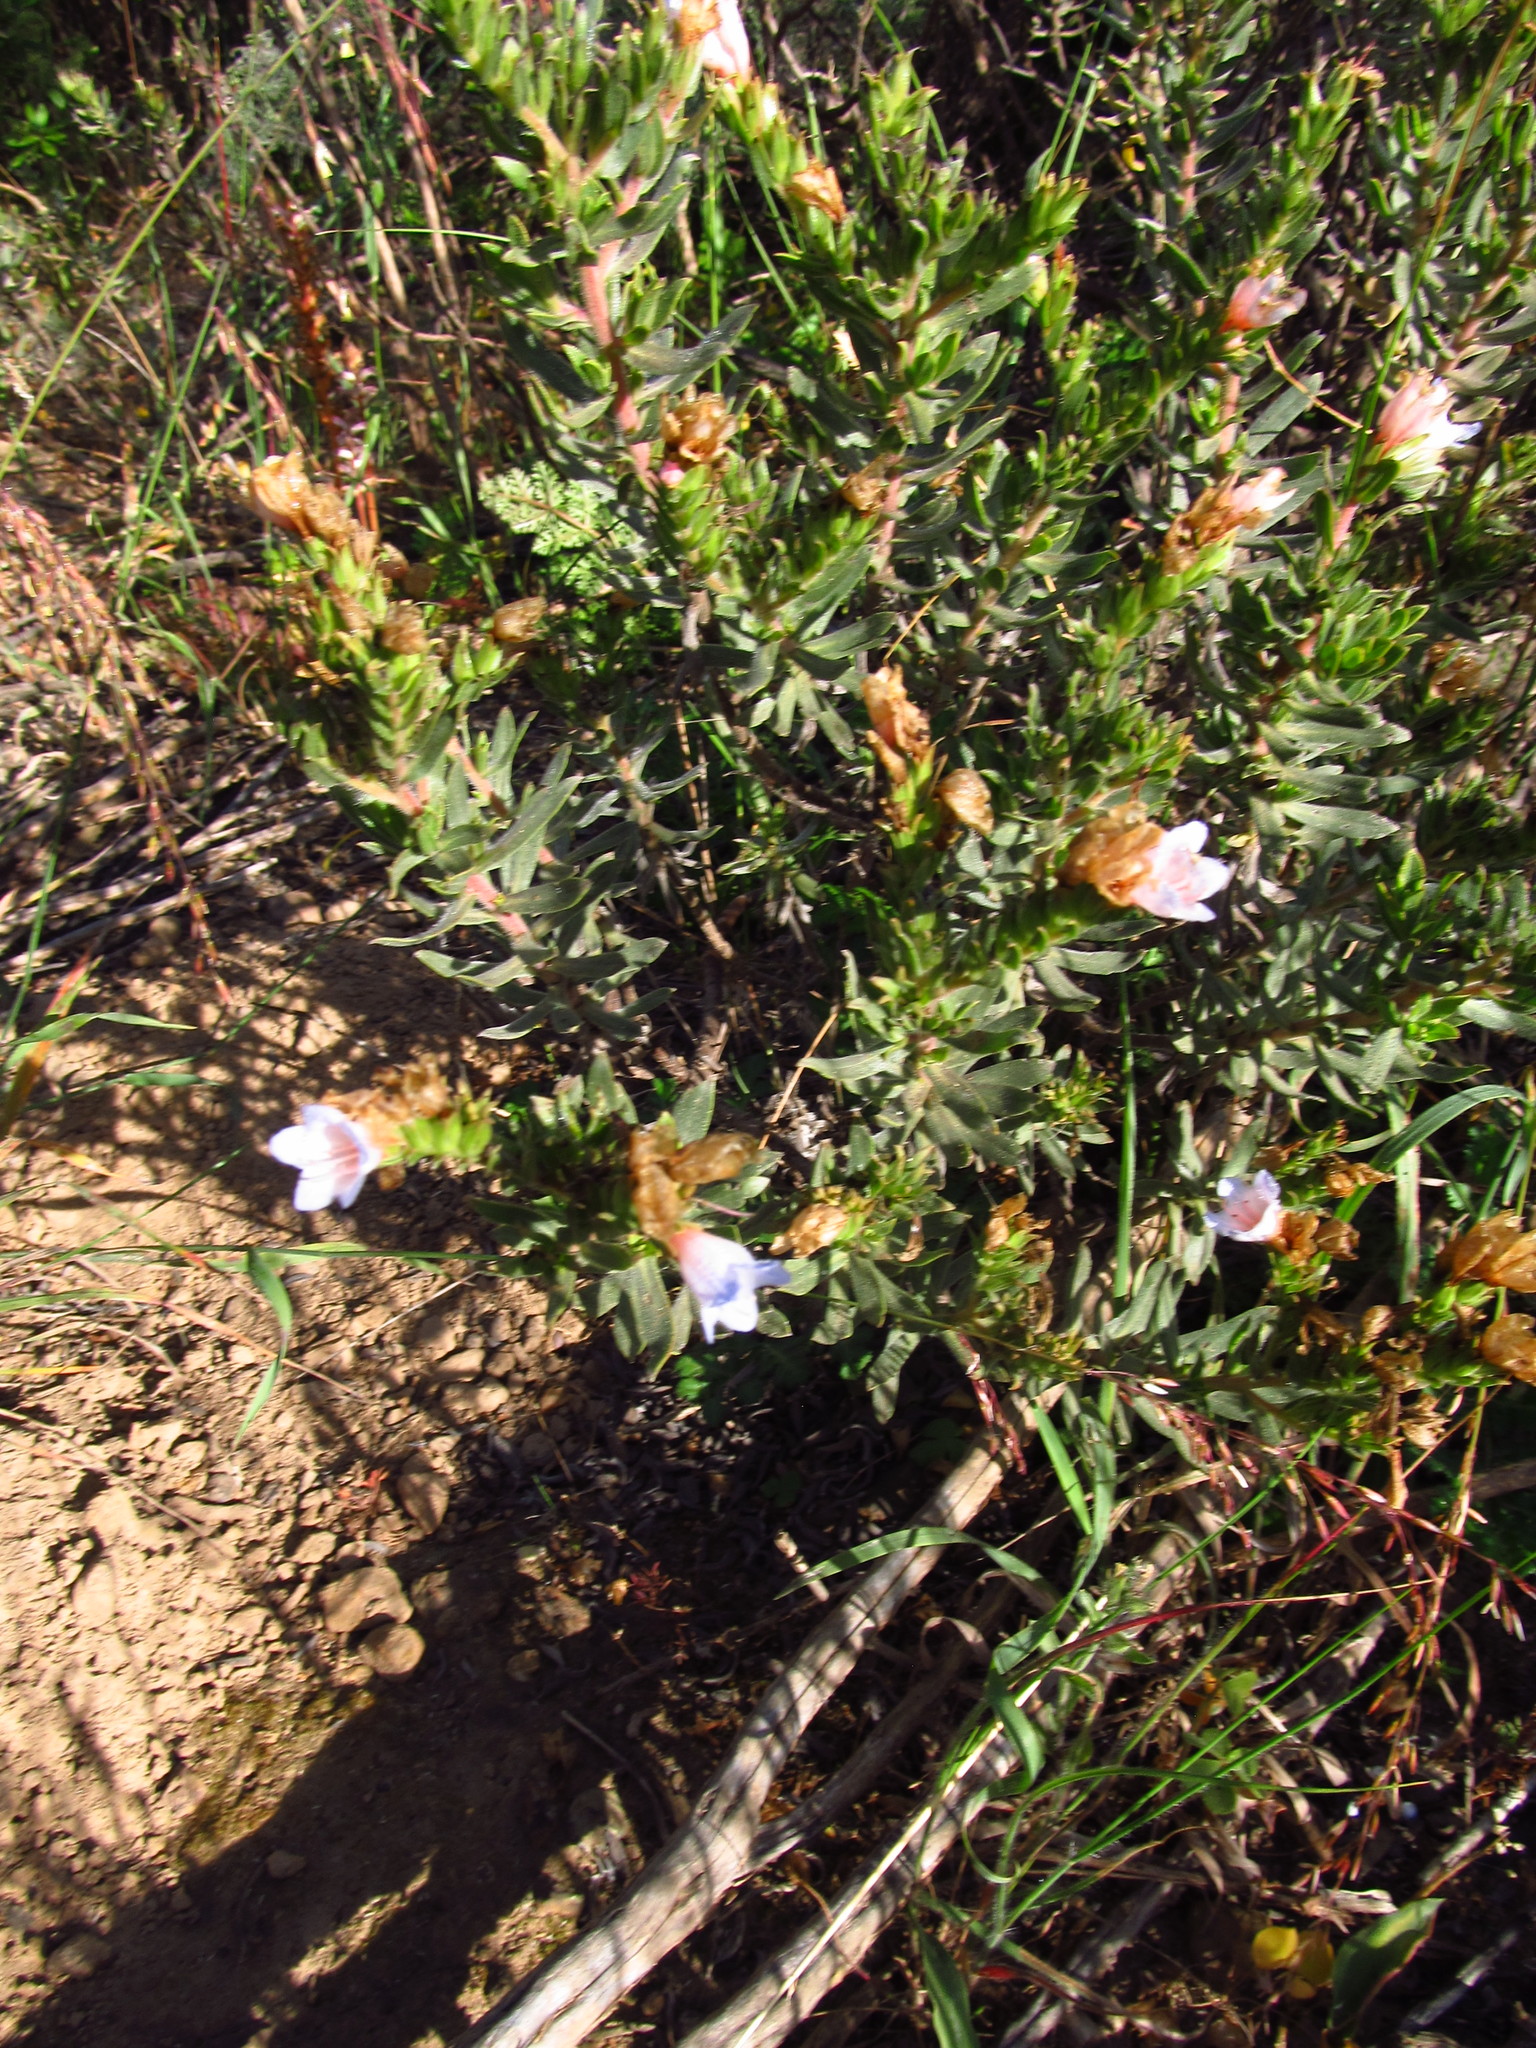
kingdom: Plantae
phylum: Tracheophyta
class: Magnoliopsida
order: Boraginales
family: Boraginaceae
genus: Lobostemon
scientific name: Lobostemon fruticosus
